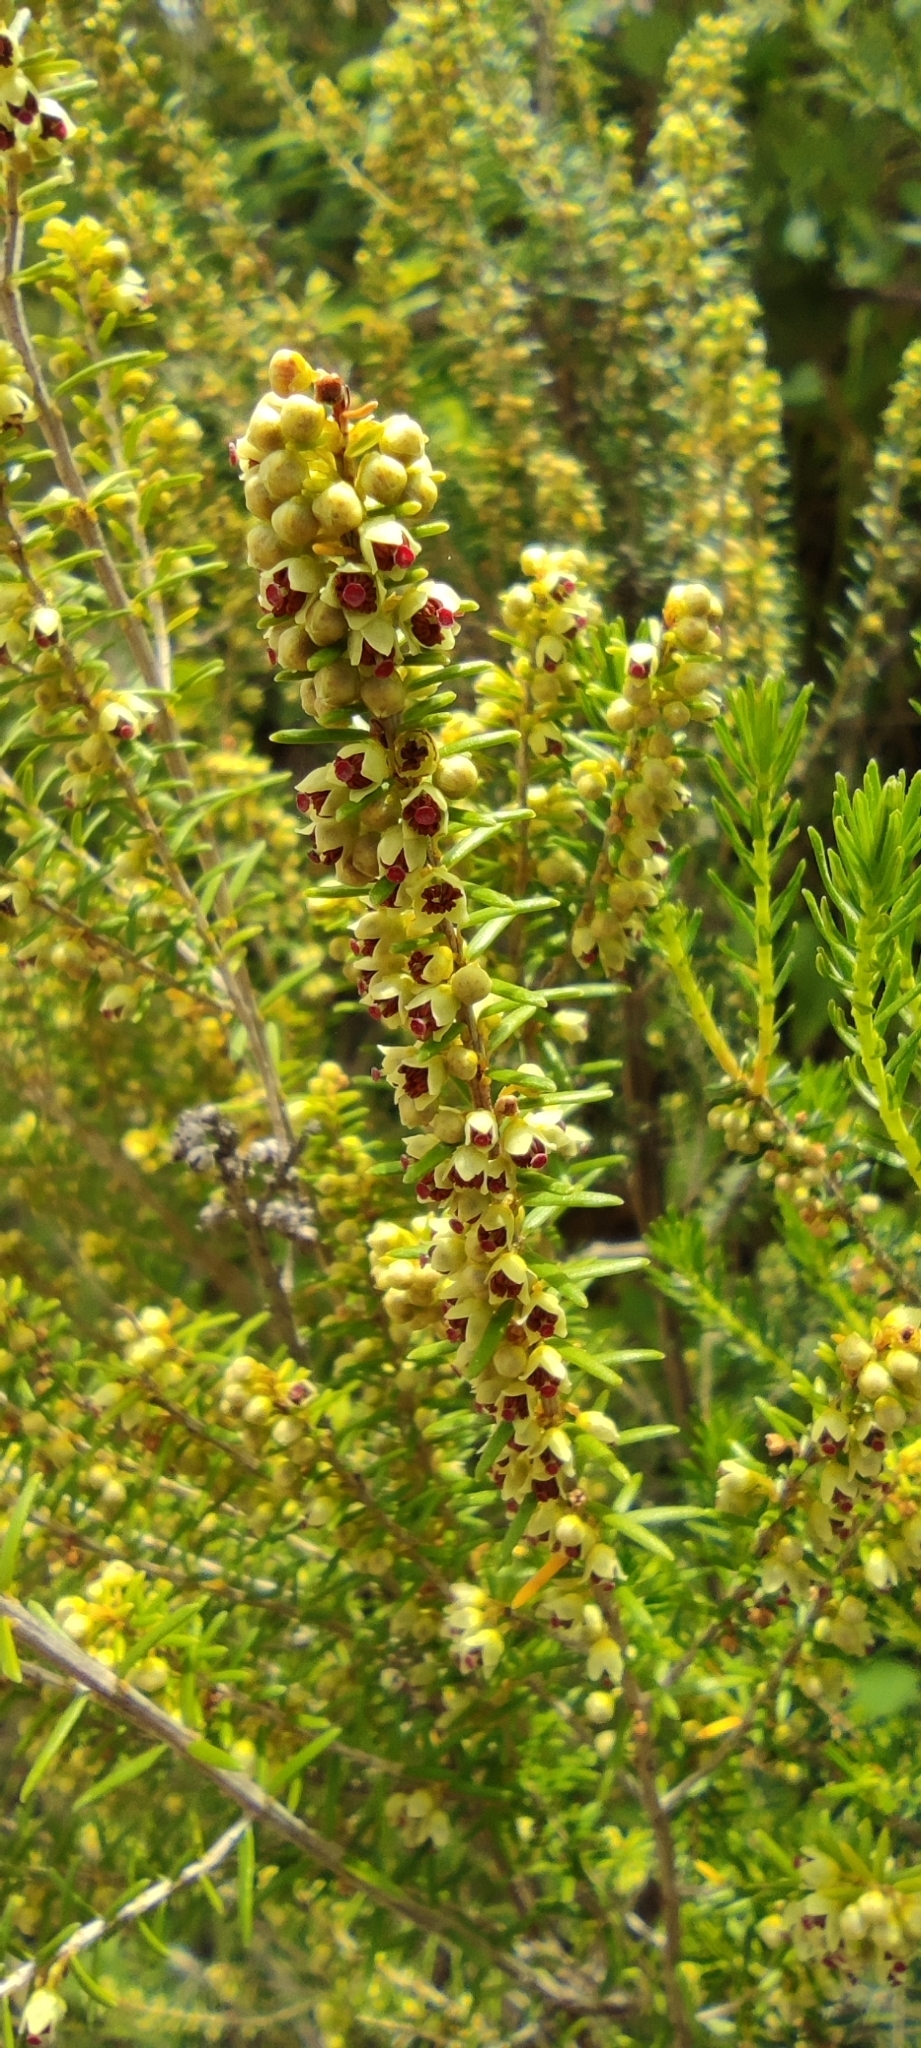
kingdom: Plantae
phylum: Tracheophyta
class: Magnoliopsida
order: Ericales
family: Ericaceae
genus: Erica
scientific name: Erica scoparia
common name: Green heather
